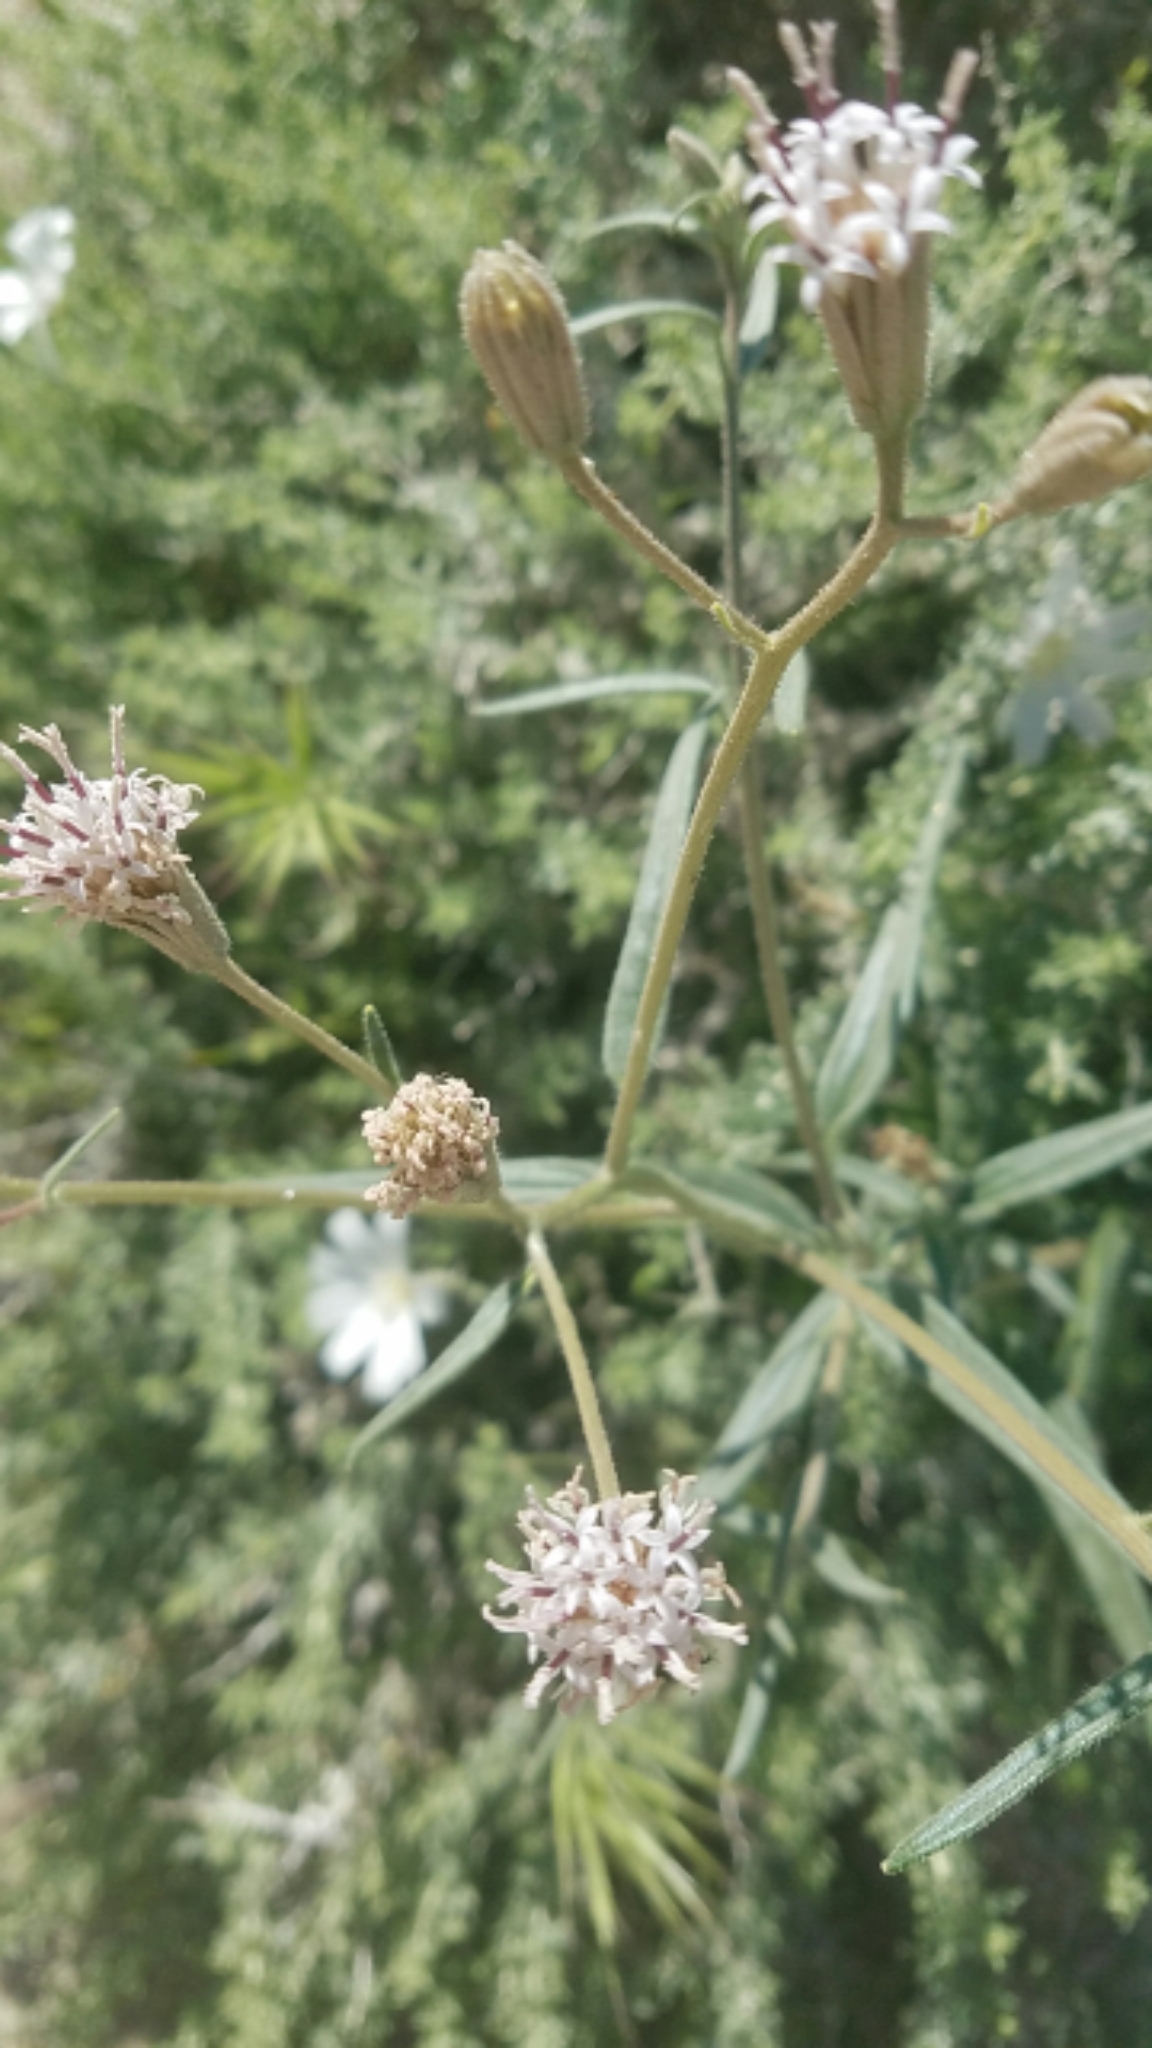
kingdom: Plantae
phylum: Tracheophyta
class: Magnoliopsida
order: Asterales
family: Asteraceae
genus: Palafoxia
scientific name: Palafoxia arida
